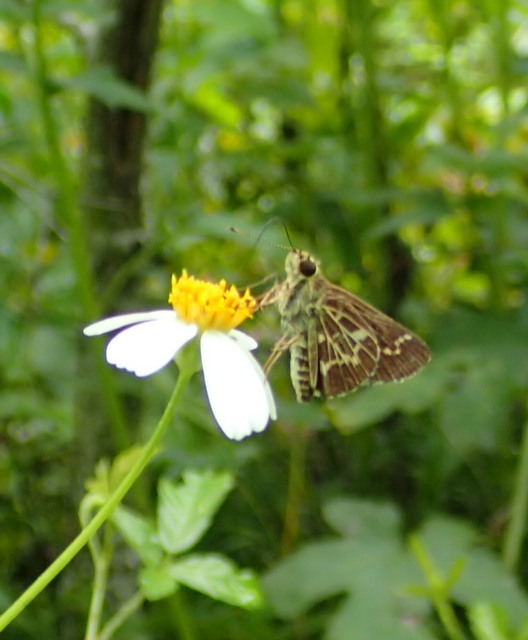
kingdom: Animalia
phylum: Arthropoda
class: Insecta
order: Lepidoptera
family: Hesperiidae
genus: Mastor
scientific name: Mastor aesculapius
